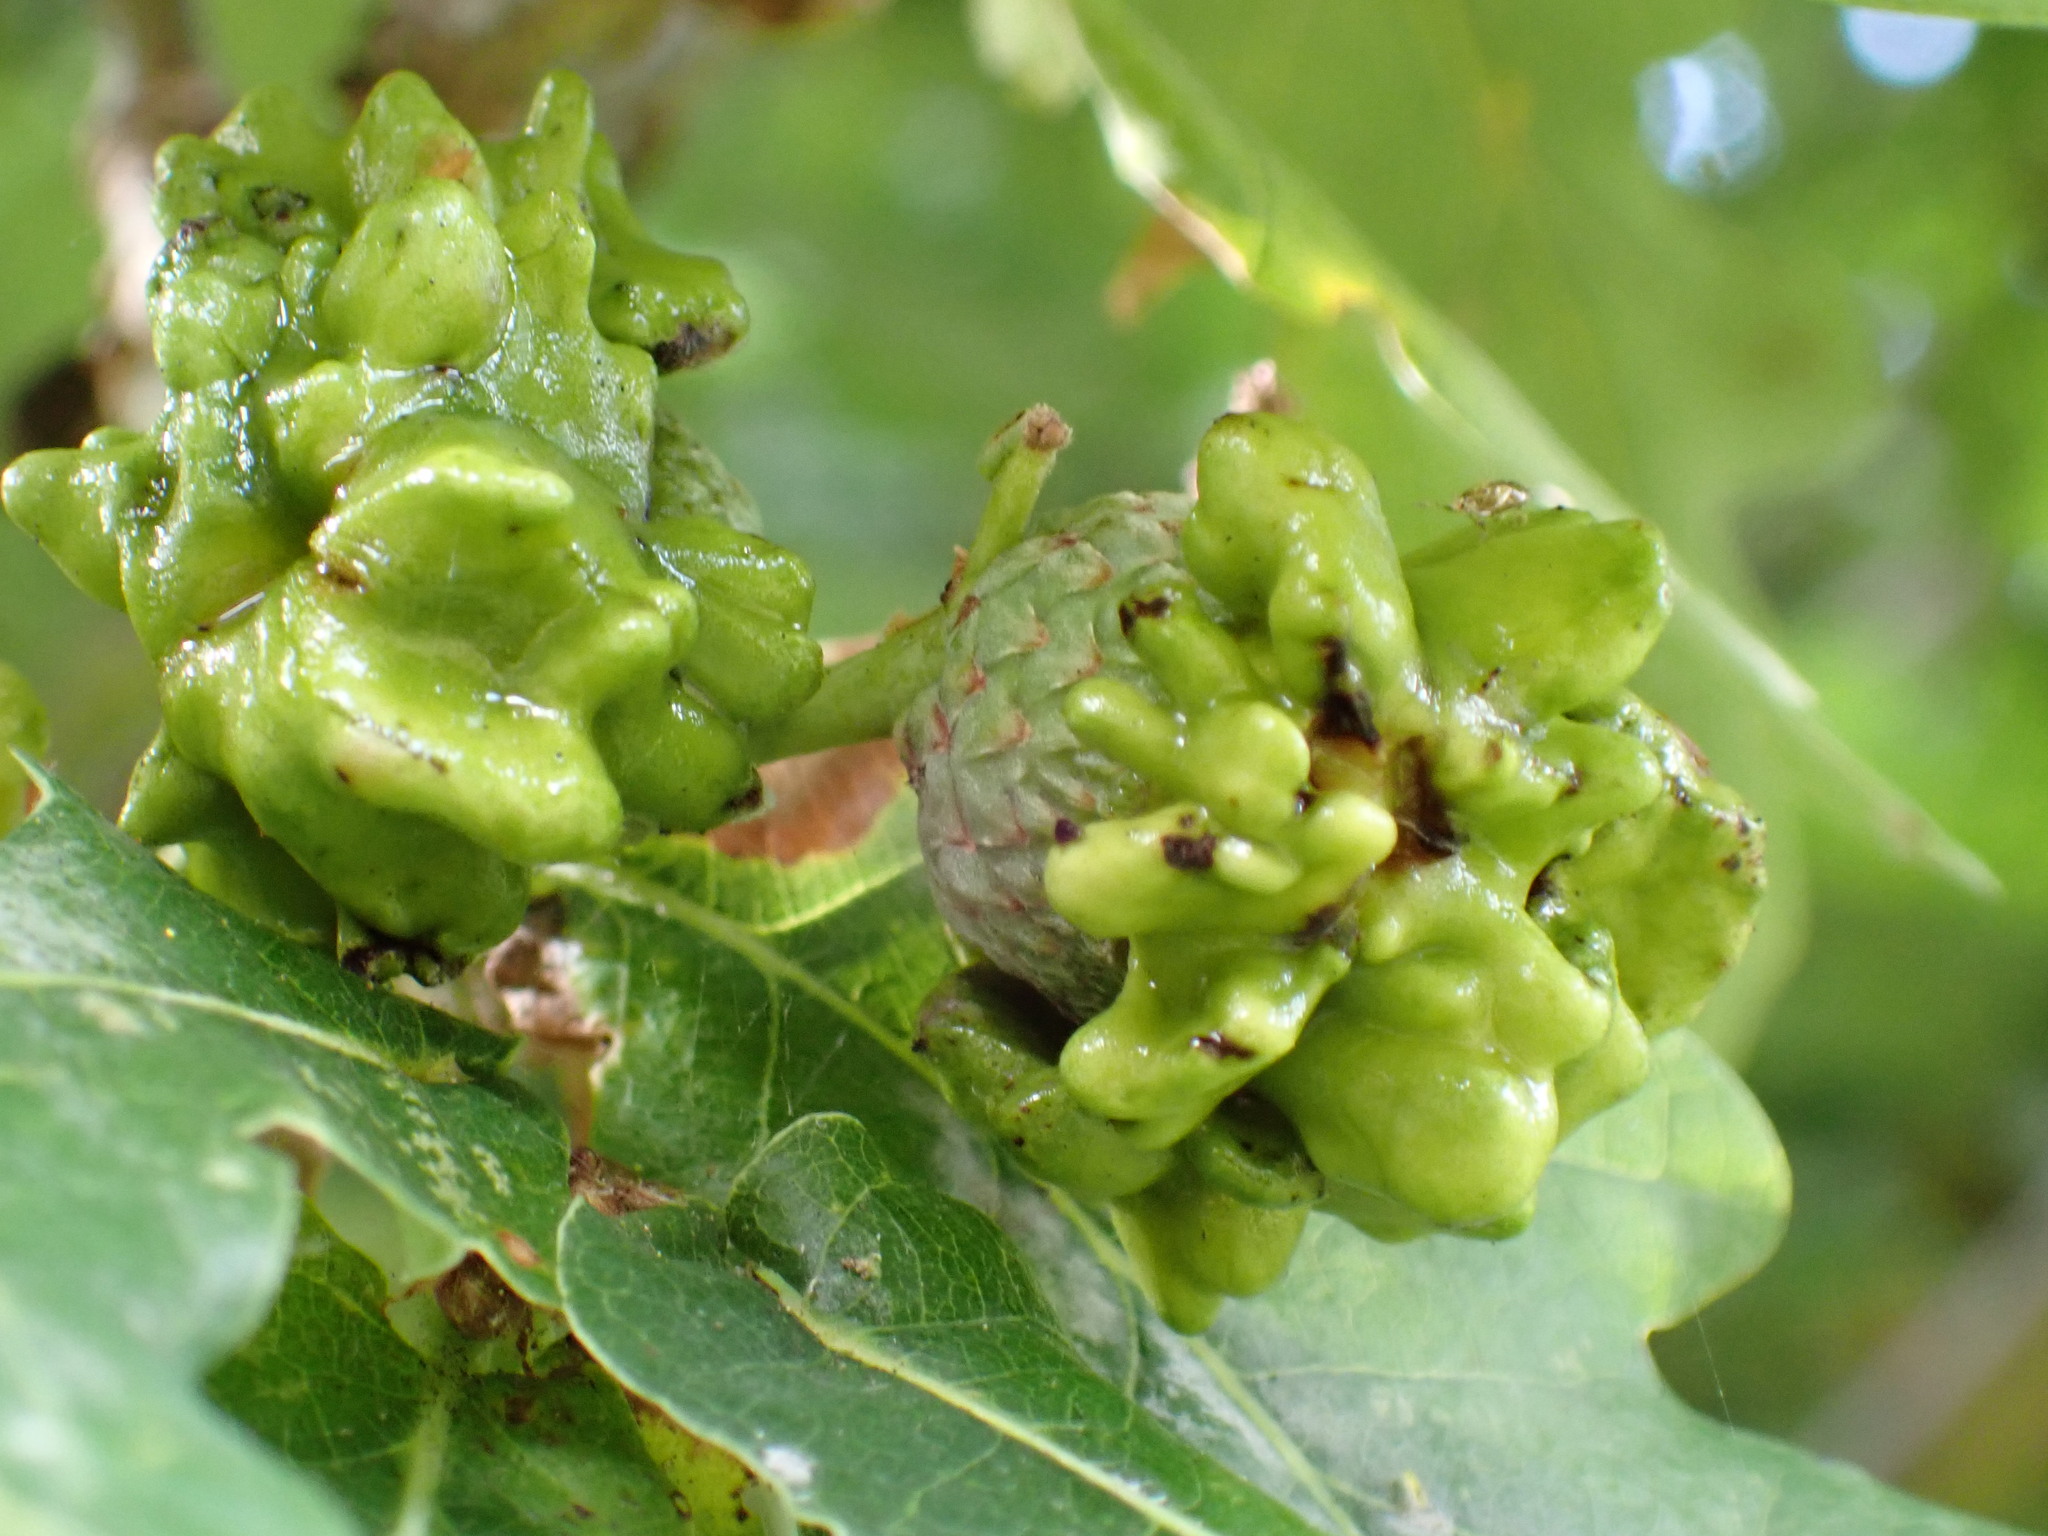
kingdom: Animalia
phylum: Arthropoda
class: Insecta
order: Hymenoptera
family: Cynipidae
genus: Andricus
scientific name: Andricus quercuscalicis
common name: Knopper gall
